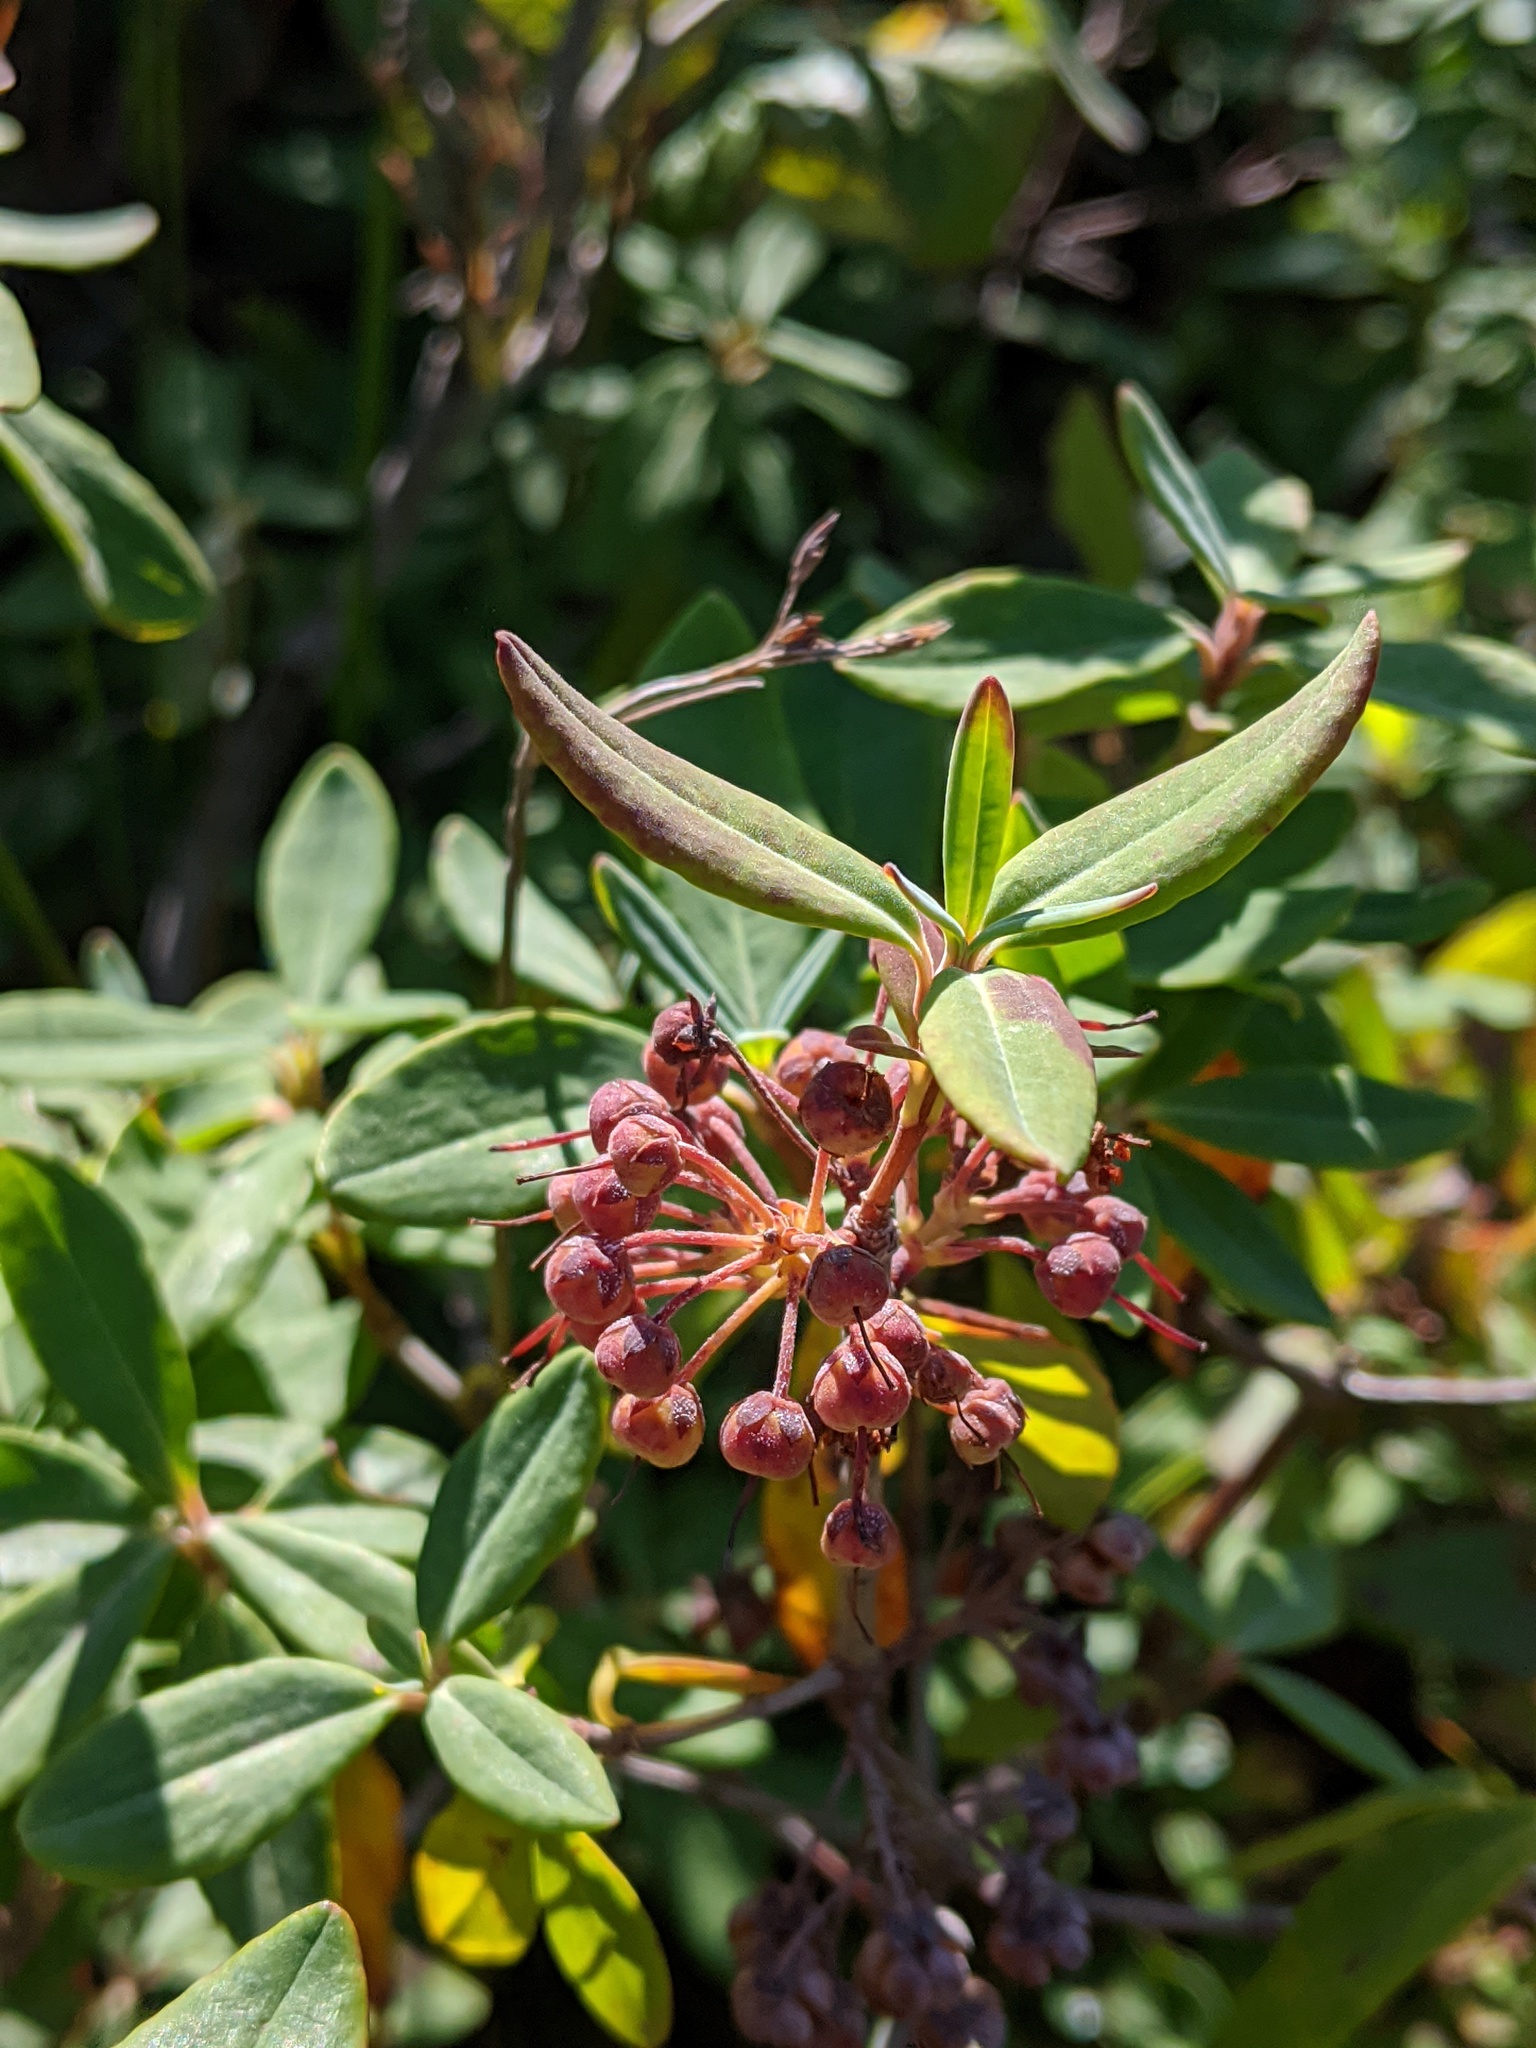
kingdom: Plantae
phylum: Tracheophyta
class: Magnoliopsida
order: Ericales
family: Ericaceae
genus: Kalmia
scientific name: Kalmia angustifolia
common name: Sheep-laurel
